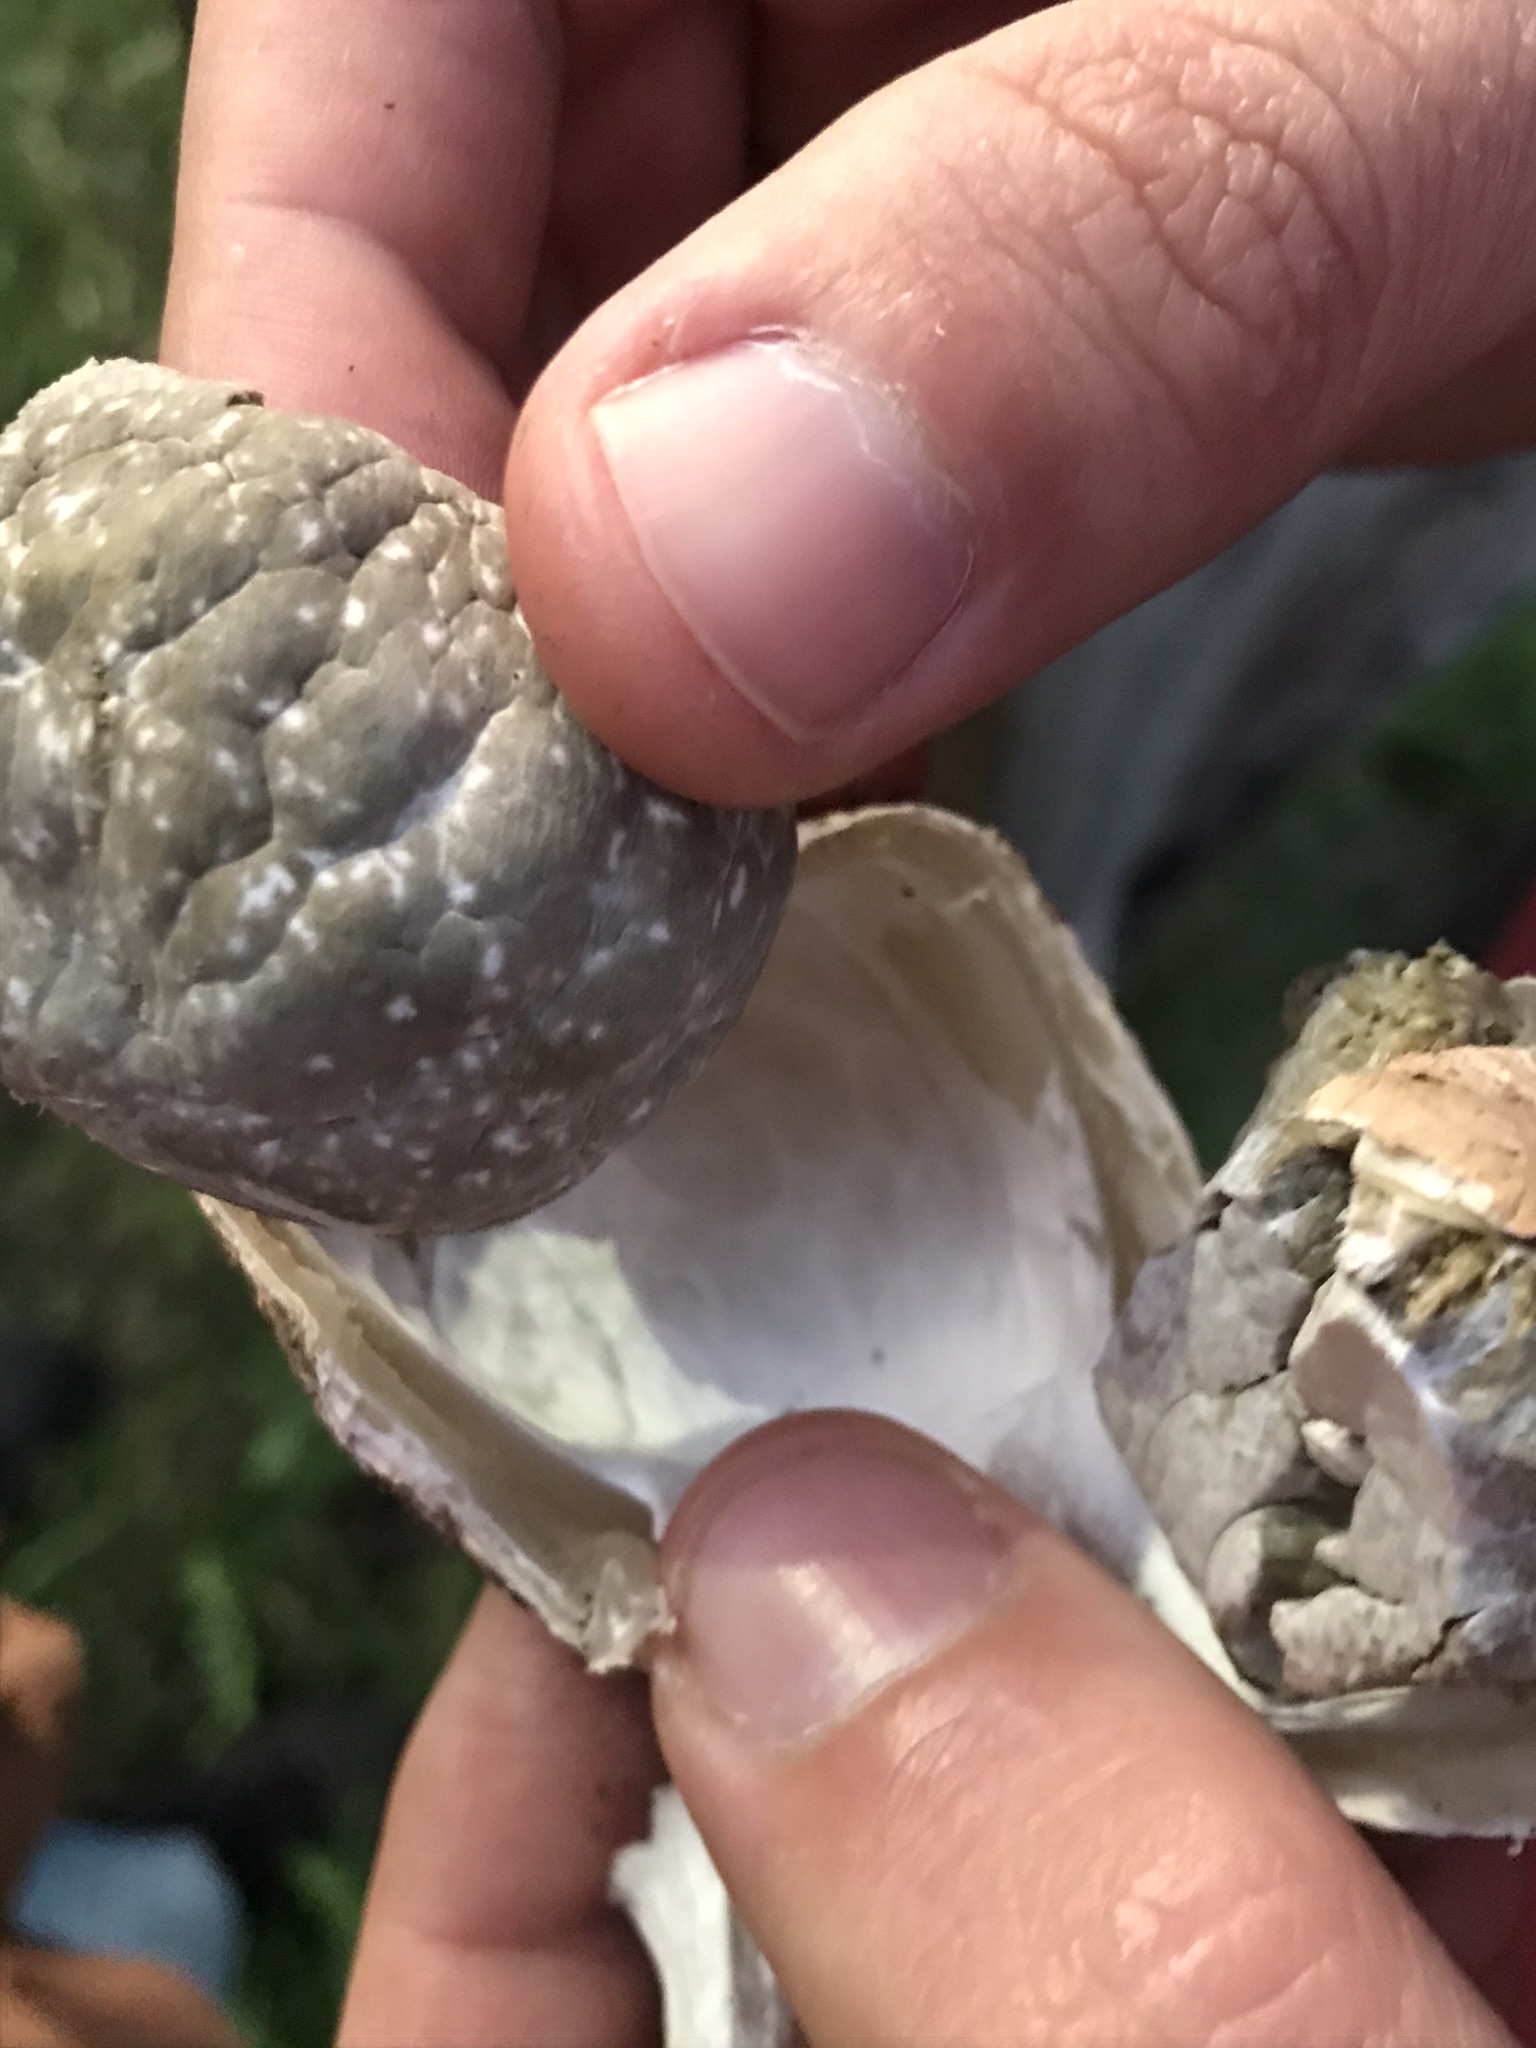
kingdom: Fungi
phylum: Basidiomycota
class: Agaricomycetes
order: Phallales
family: Phallaceae
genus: Itajahya
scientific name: Itajahya galericulata
